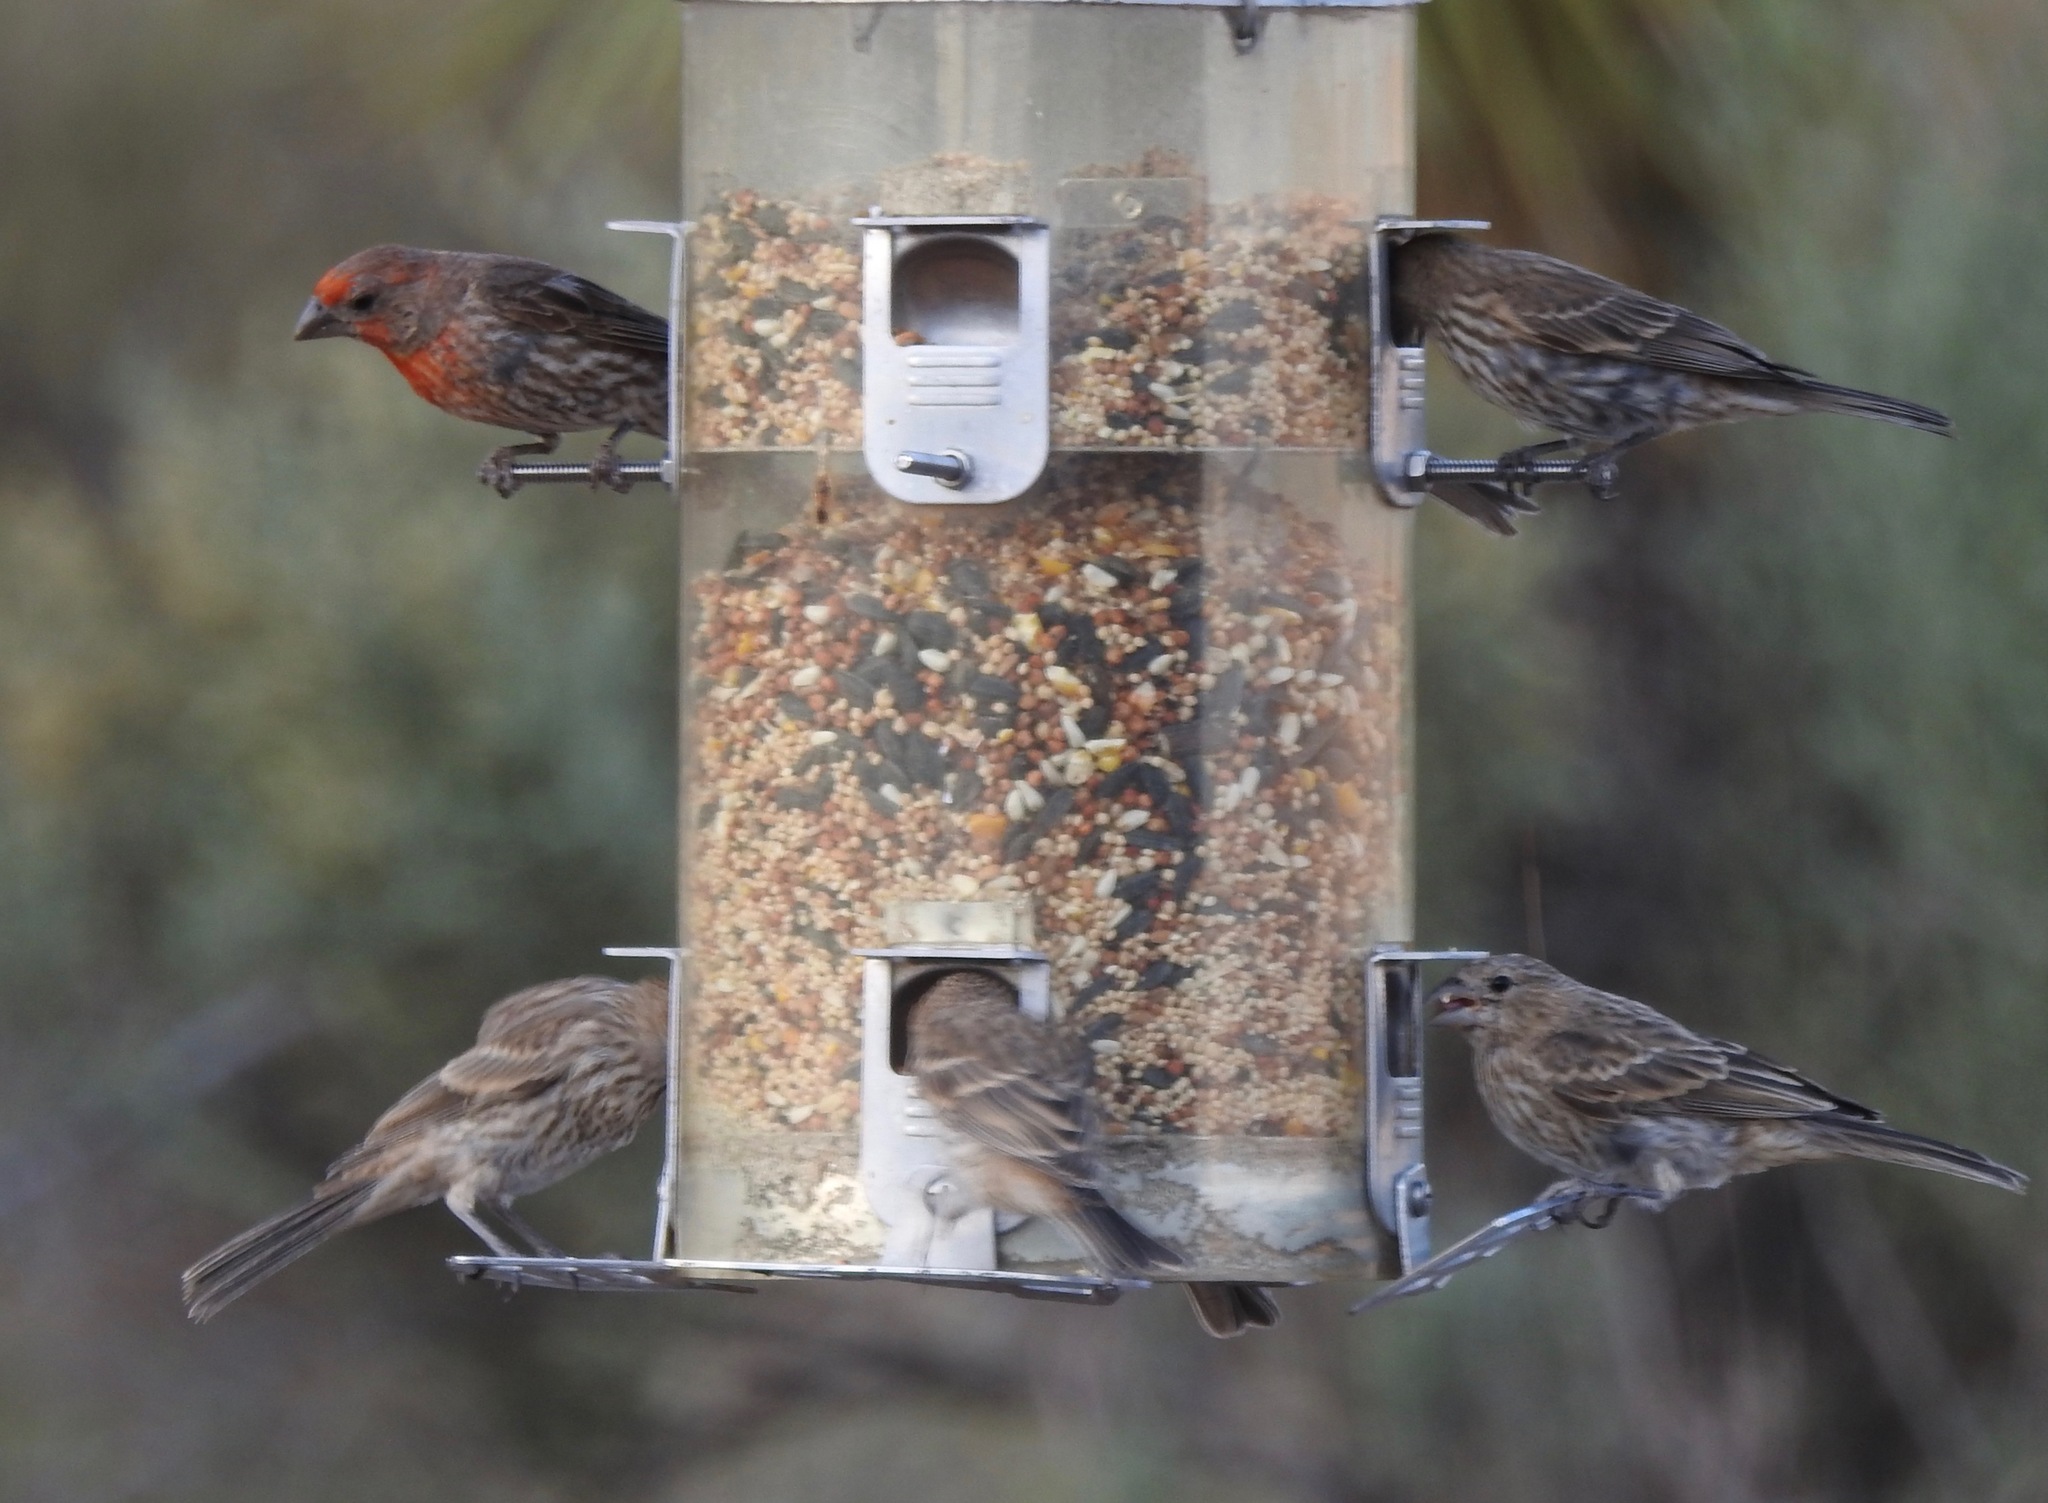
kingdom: Animalia
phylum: Chordata
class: Aves
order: Passeriformes
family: Fringillidae
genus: Haemorhous
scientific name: Haemorhous mexicanus
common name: House finch
